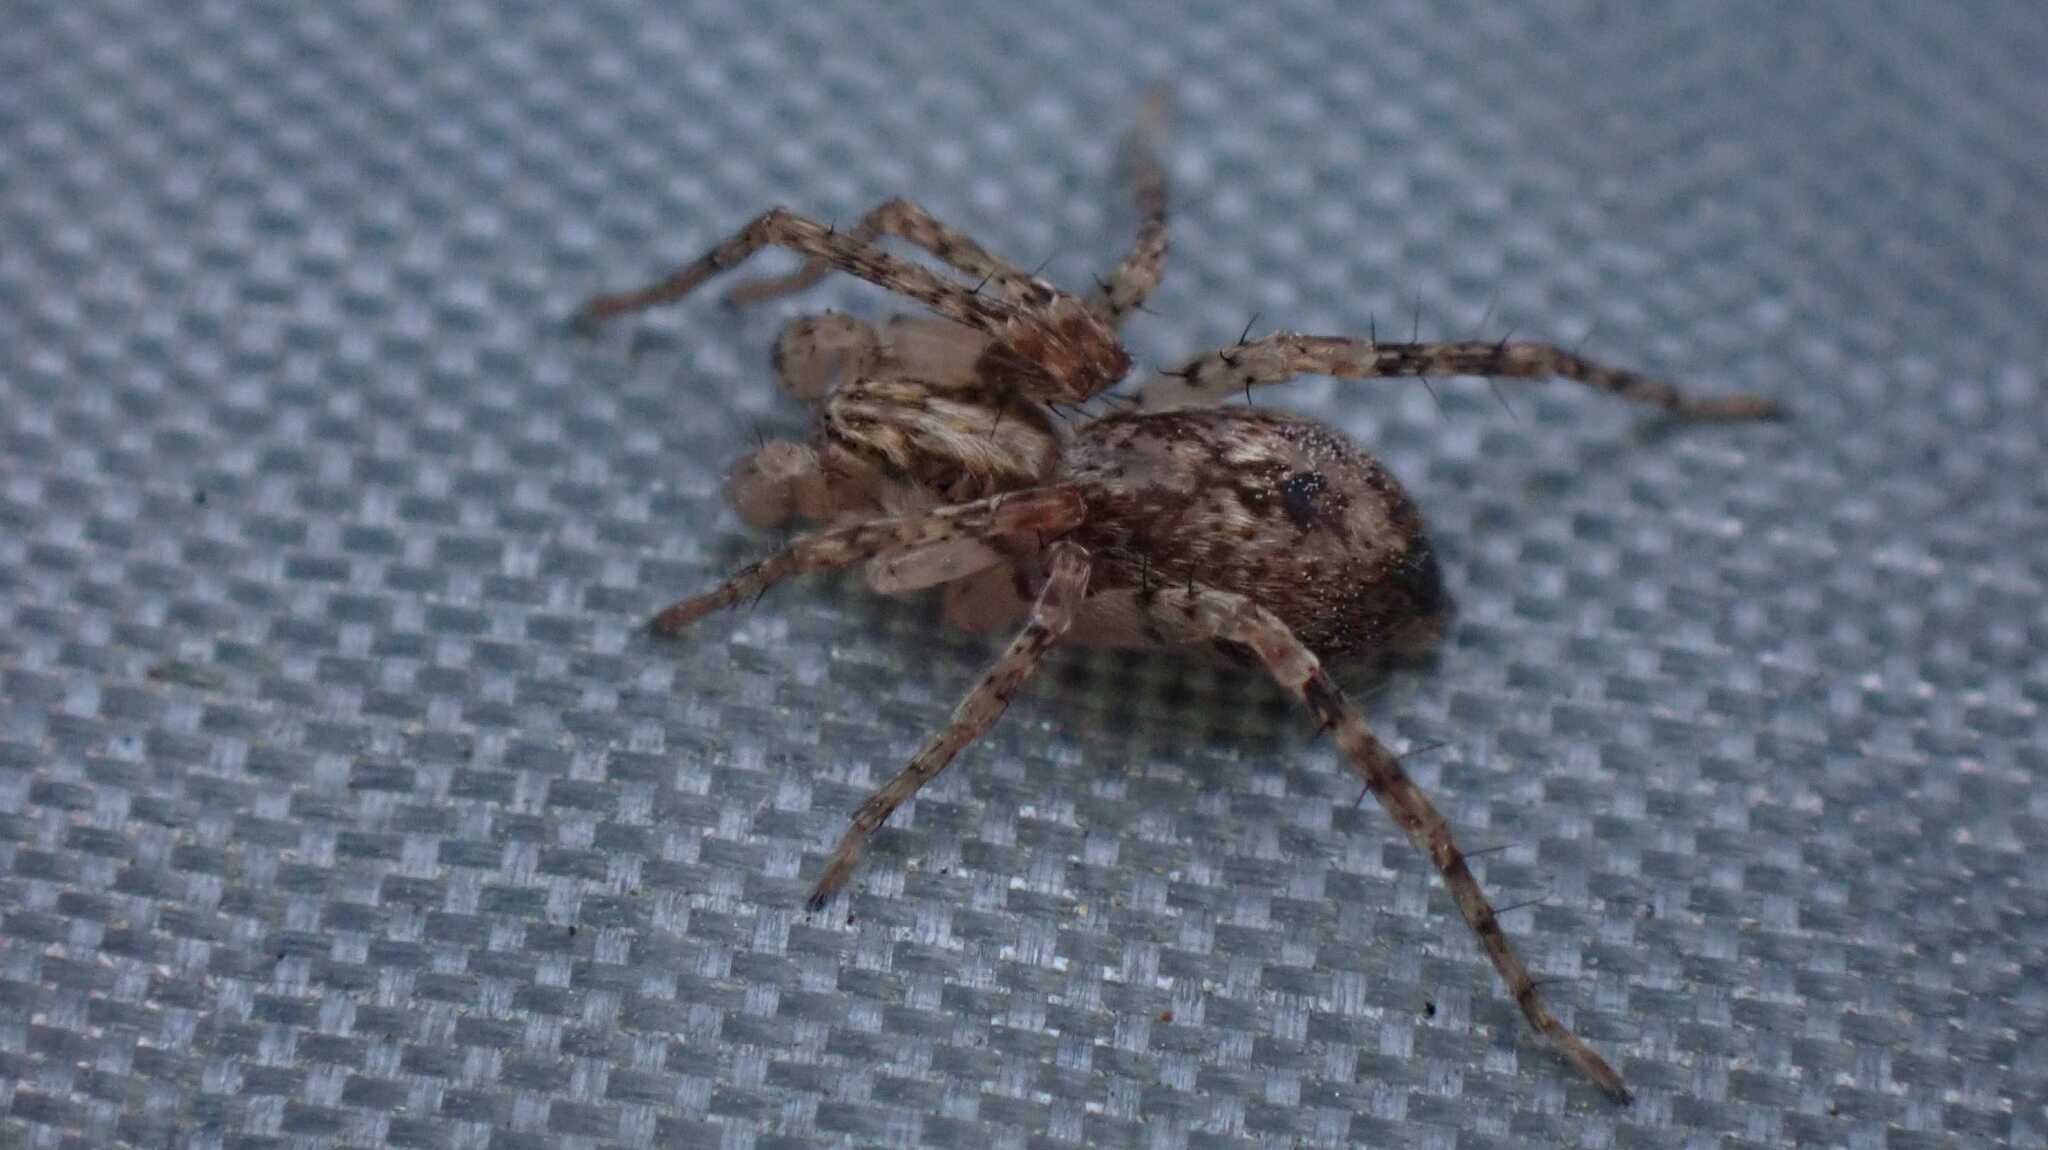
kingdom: Animalia
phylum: Arthropoda
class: Arachnida
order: Araneae
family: Anyphaenidae
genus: Anyphaena
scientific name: Anyphaena accentuata
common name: Buzzing spider
